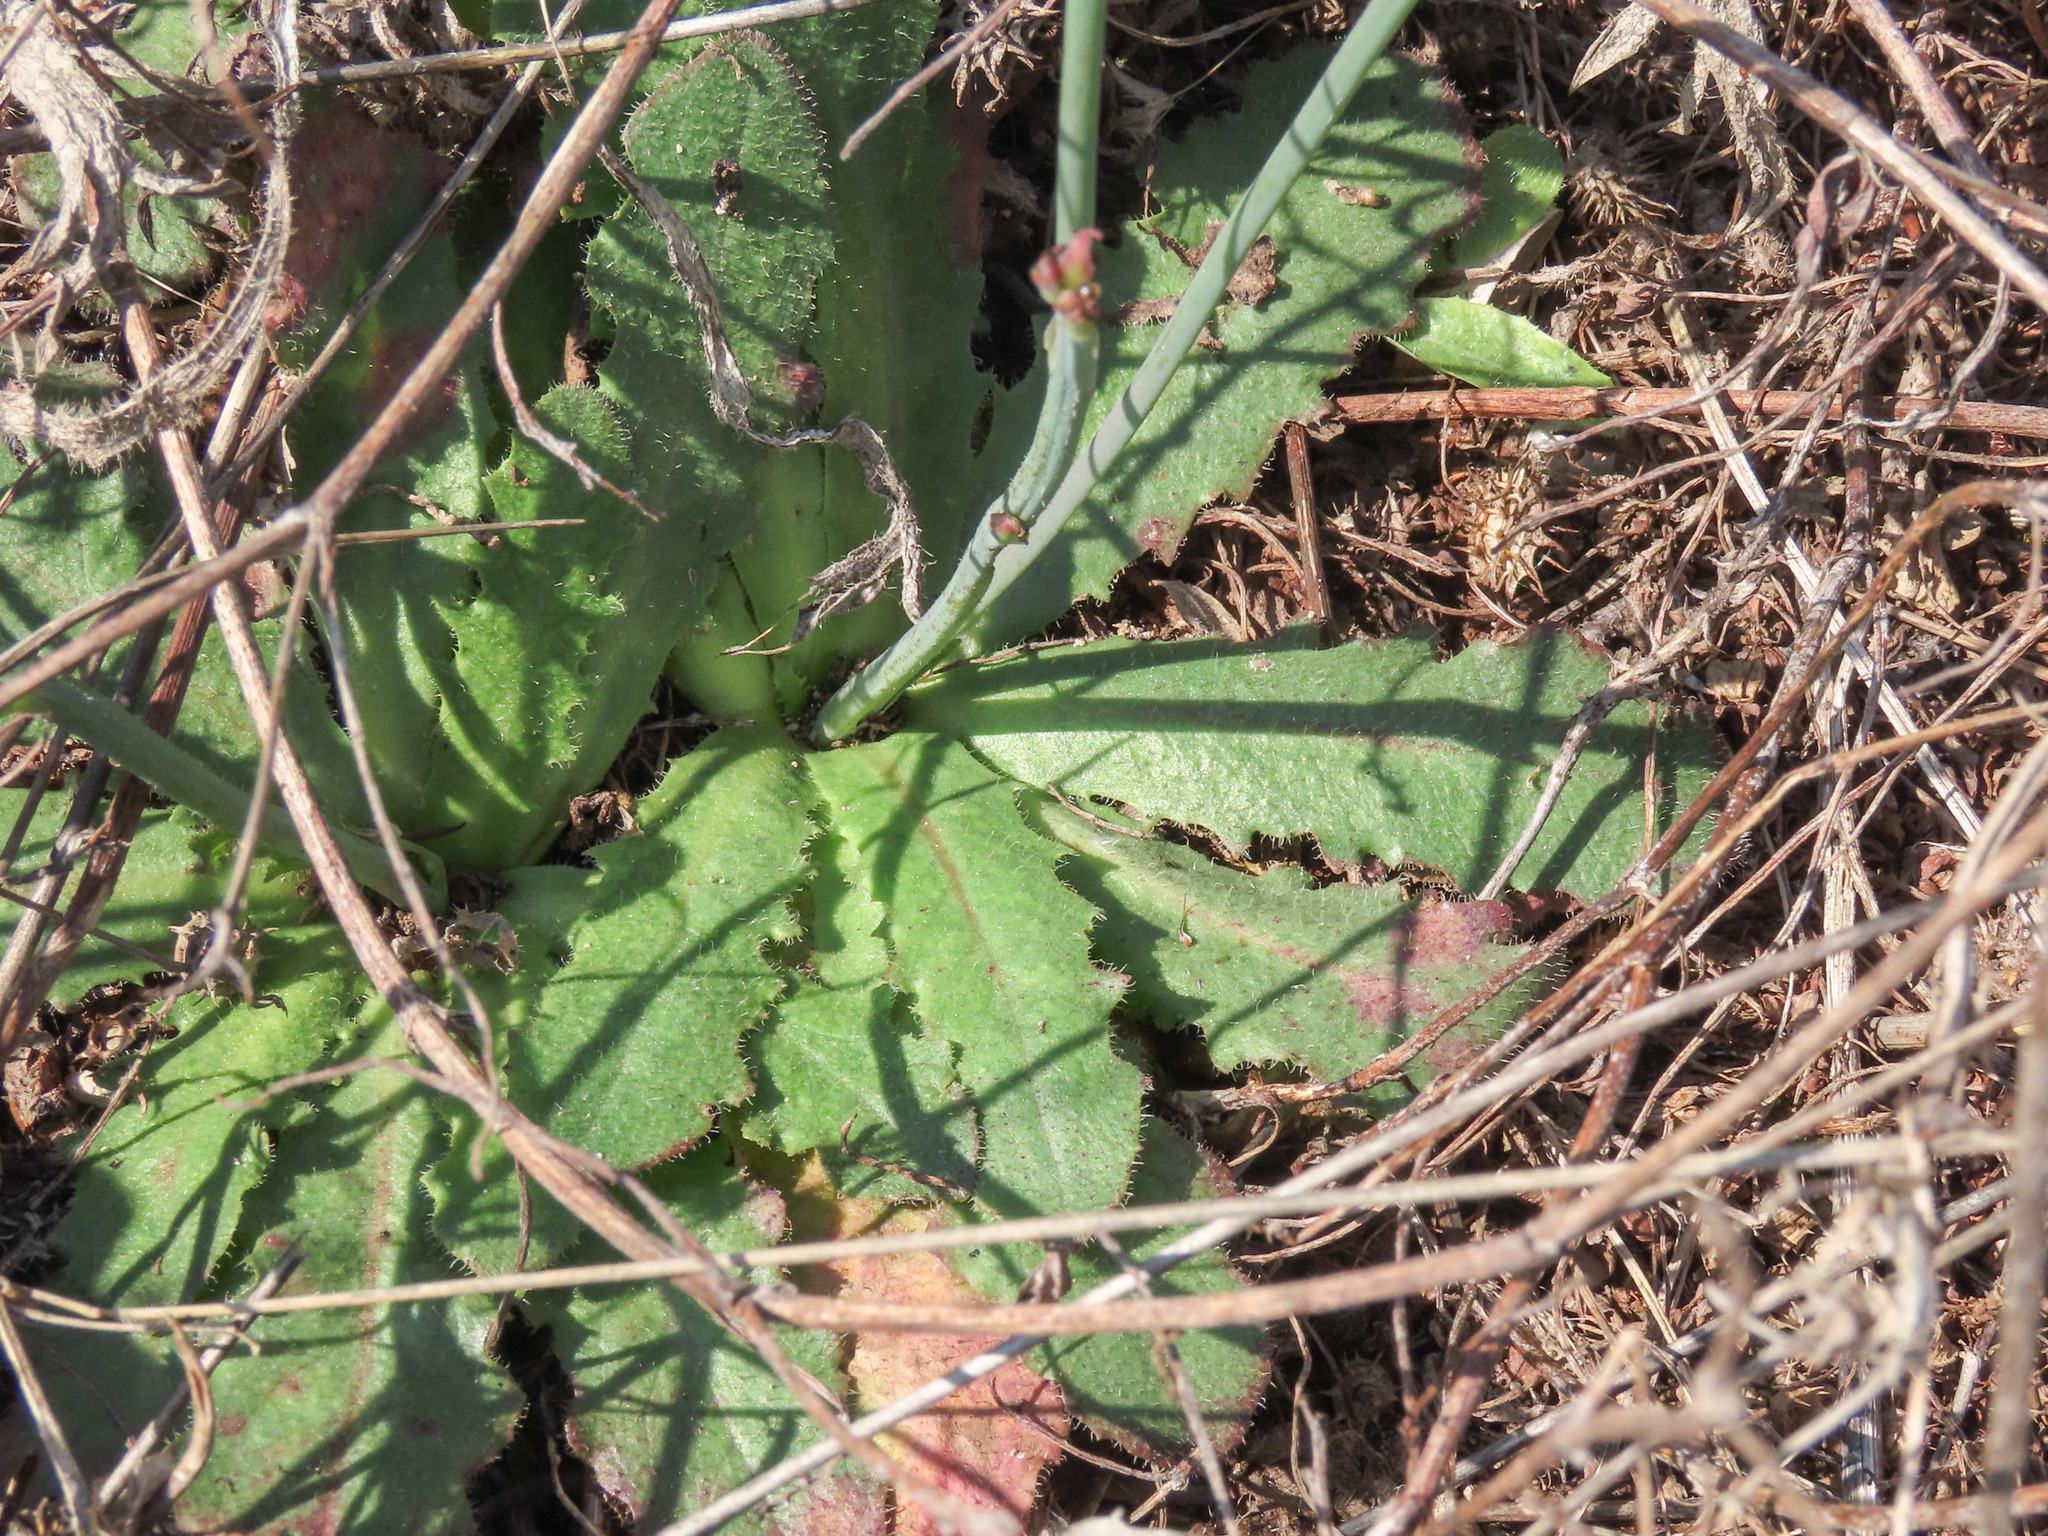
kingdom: Plantae
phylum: Tracheophyta
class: Magnoliopsida
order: Asterales
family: Asteraceae
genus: Hypochaeris
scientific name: Hypochaeris radicata
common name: Flatweed
